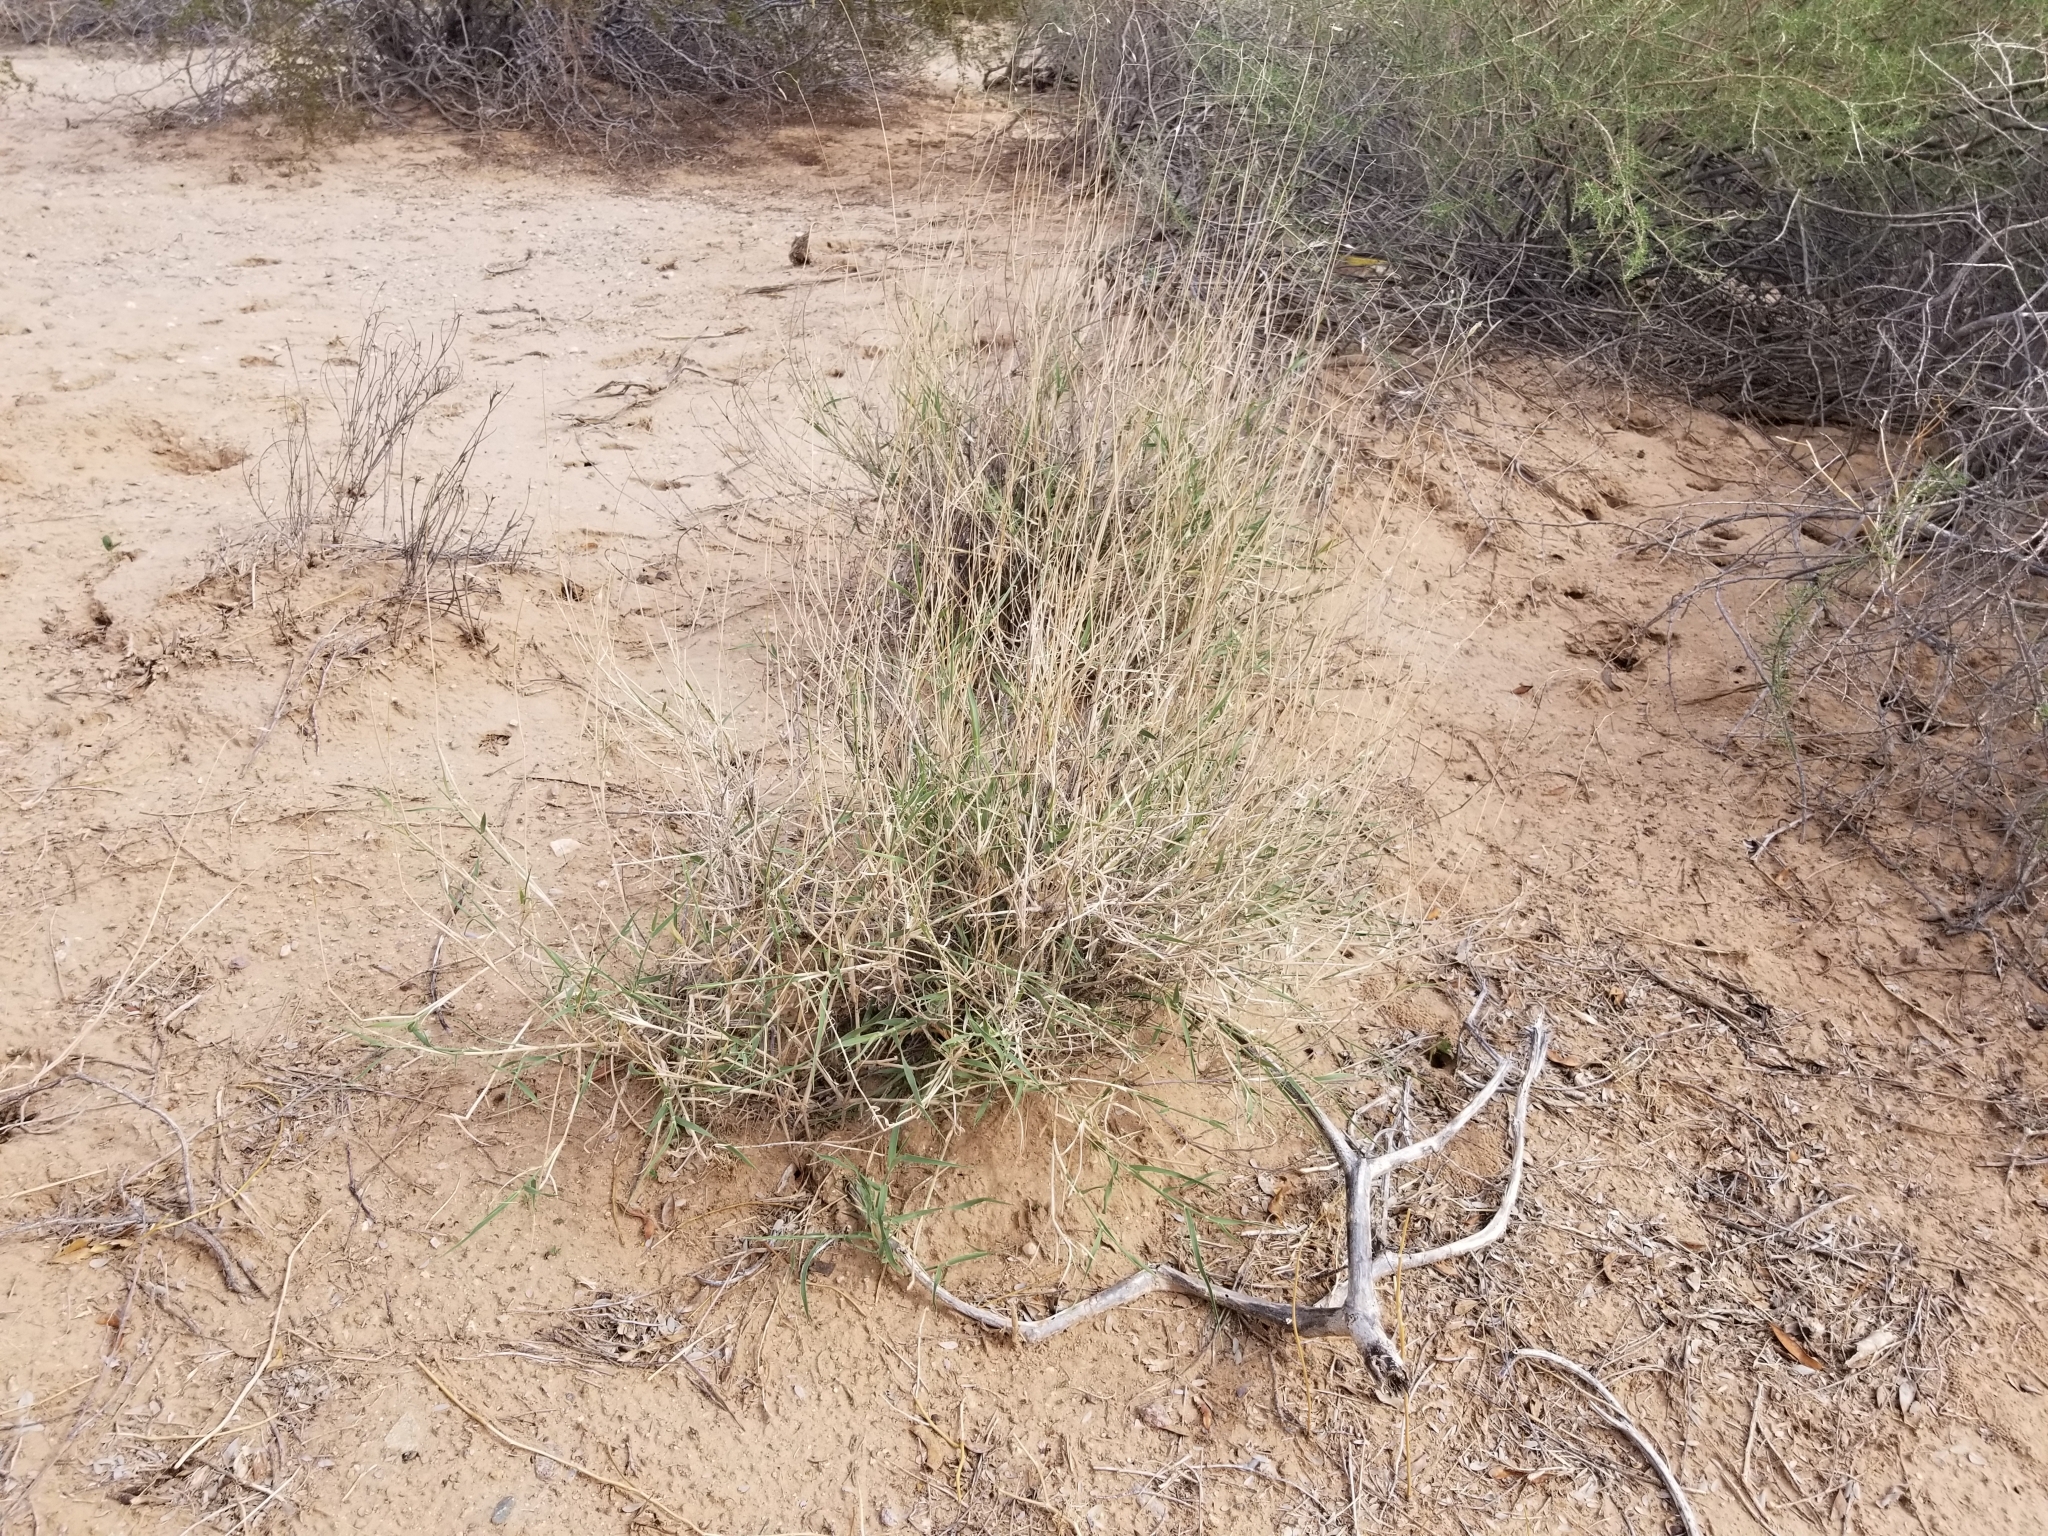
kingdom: Plantae
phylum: Tracheophyta
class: Liliopsida
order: Poales
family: Poaceae
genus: Hilaria
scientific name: Hilaria rigida
